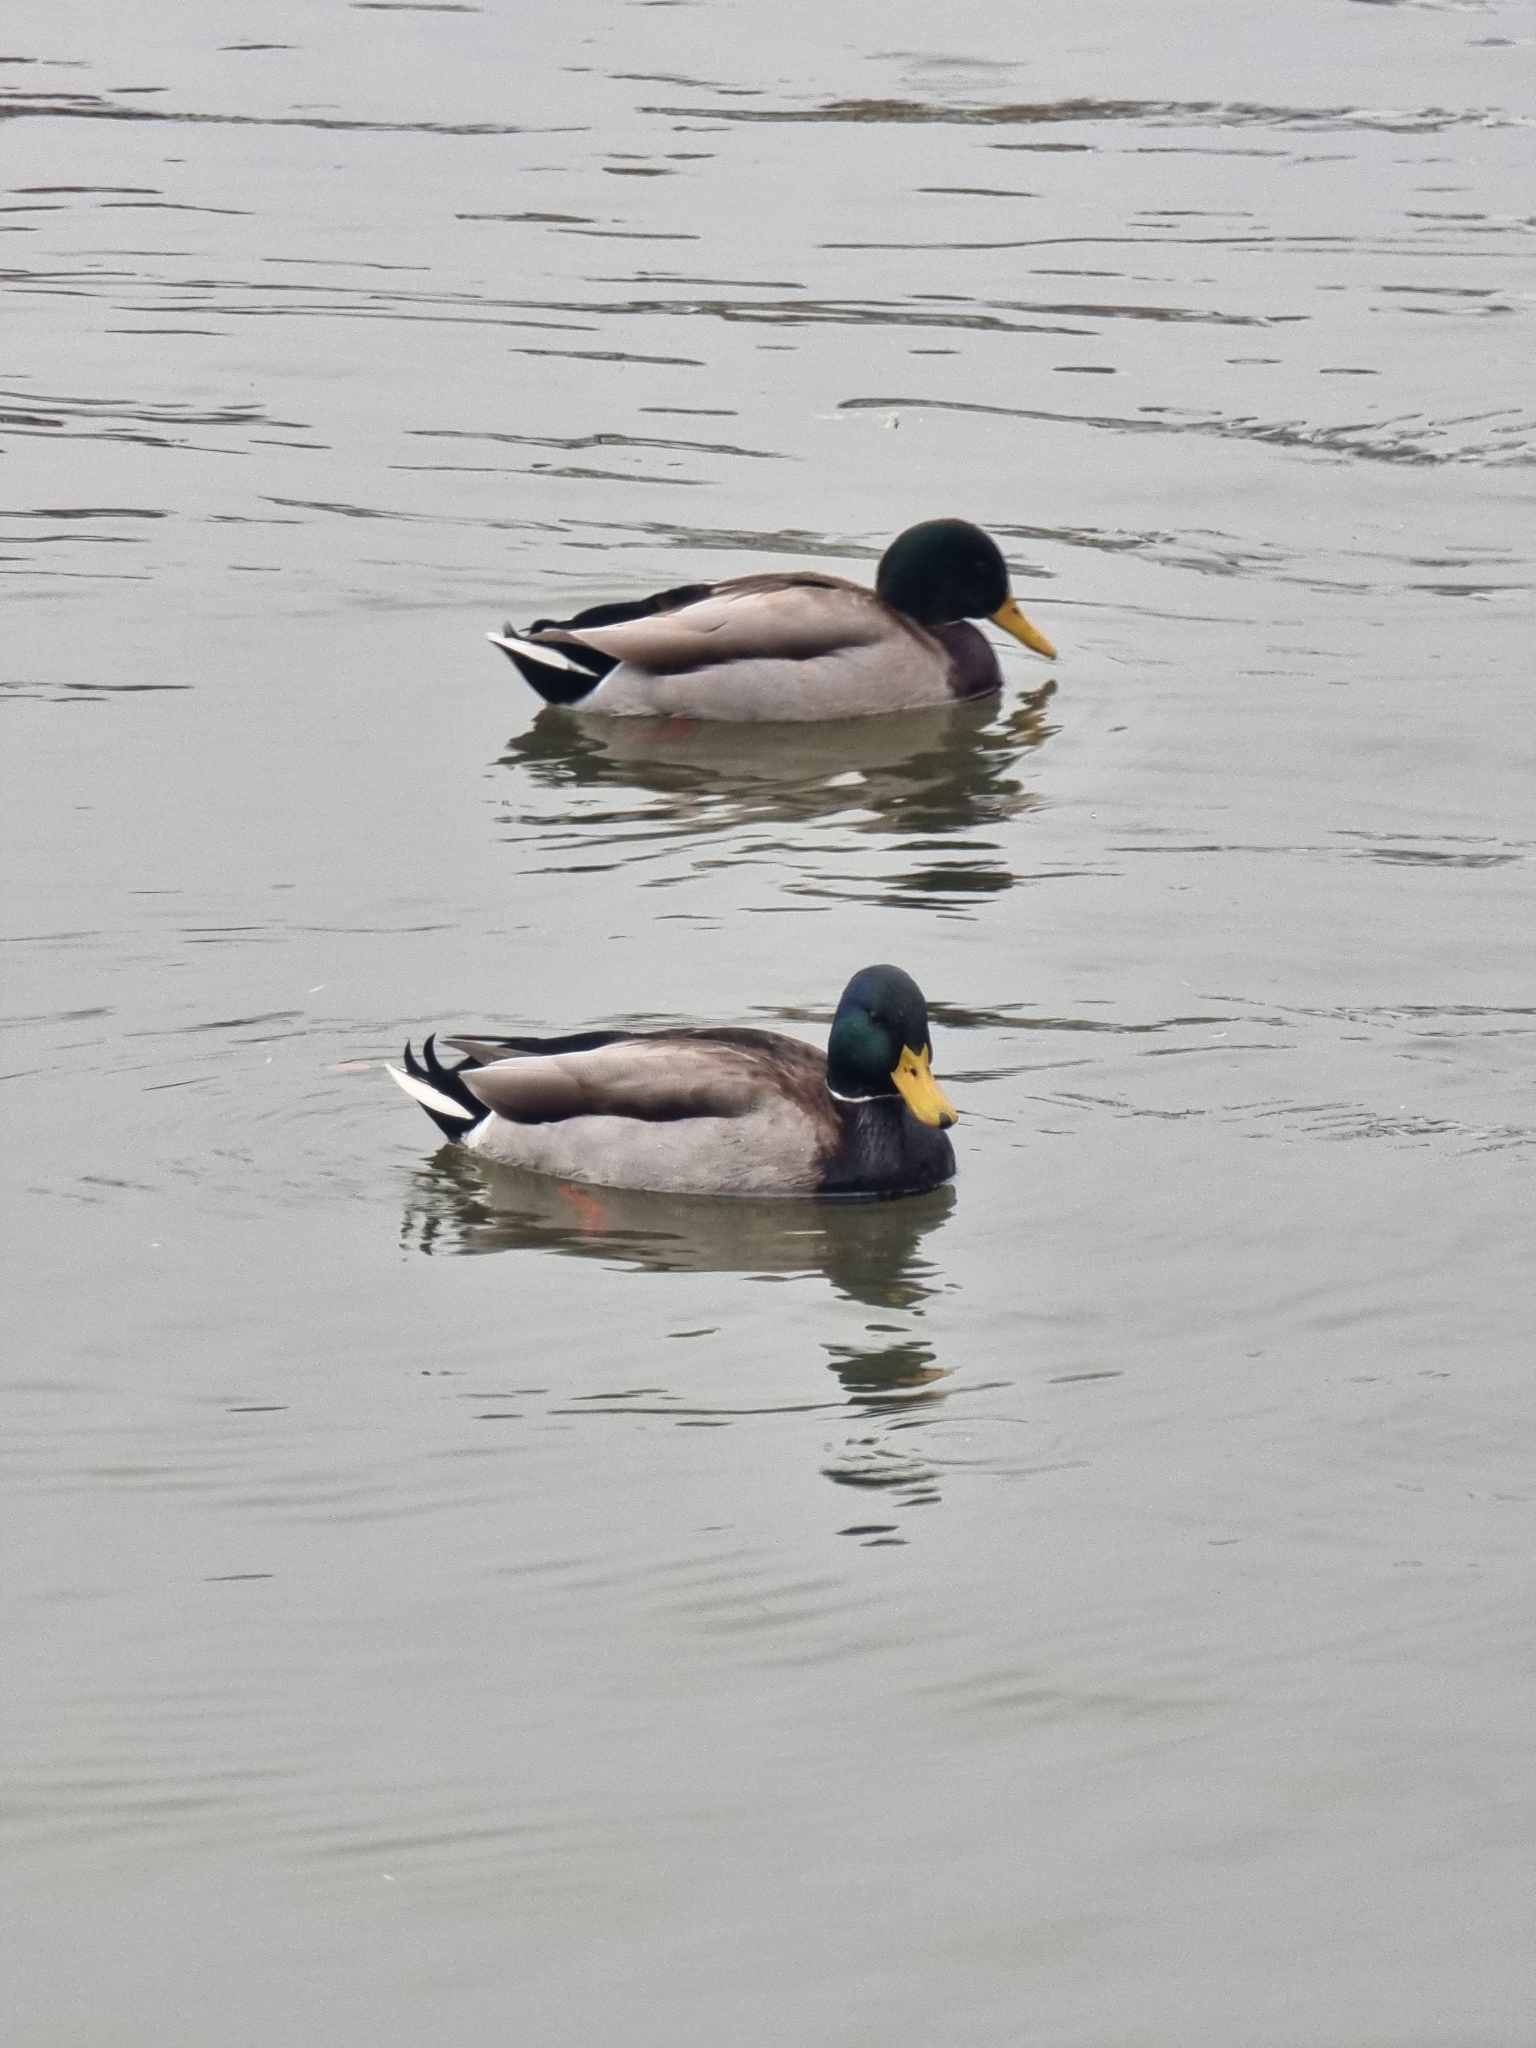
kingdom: Animalia
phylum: Chordata
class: Aves
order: Anseriformes
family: Anatidae
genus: Anas
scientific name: Anas platyrhynchos
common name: Mallard
